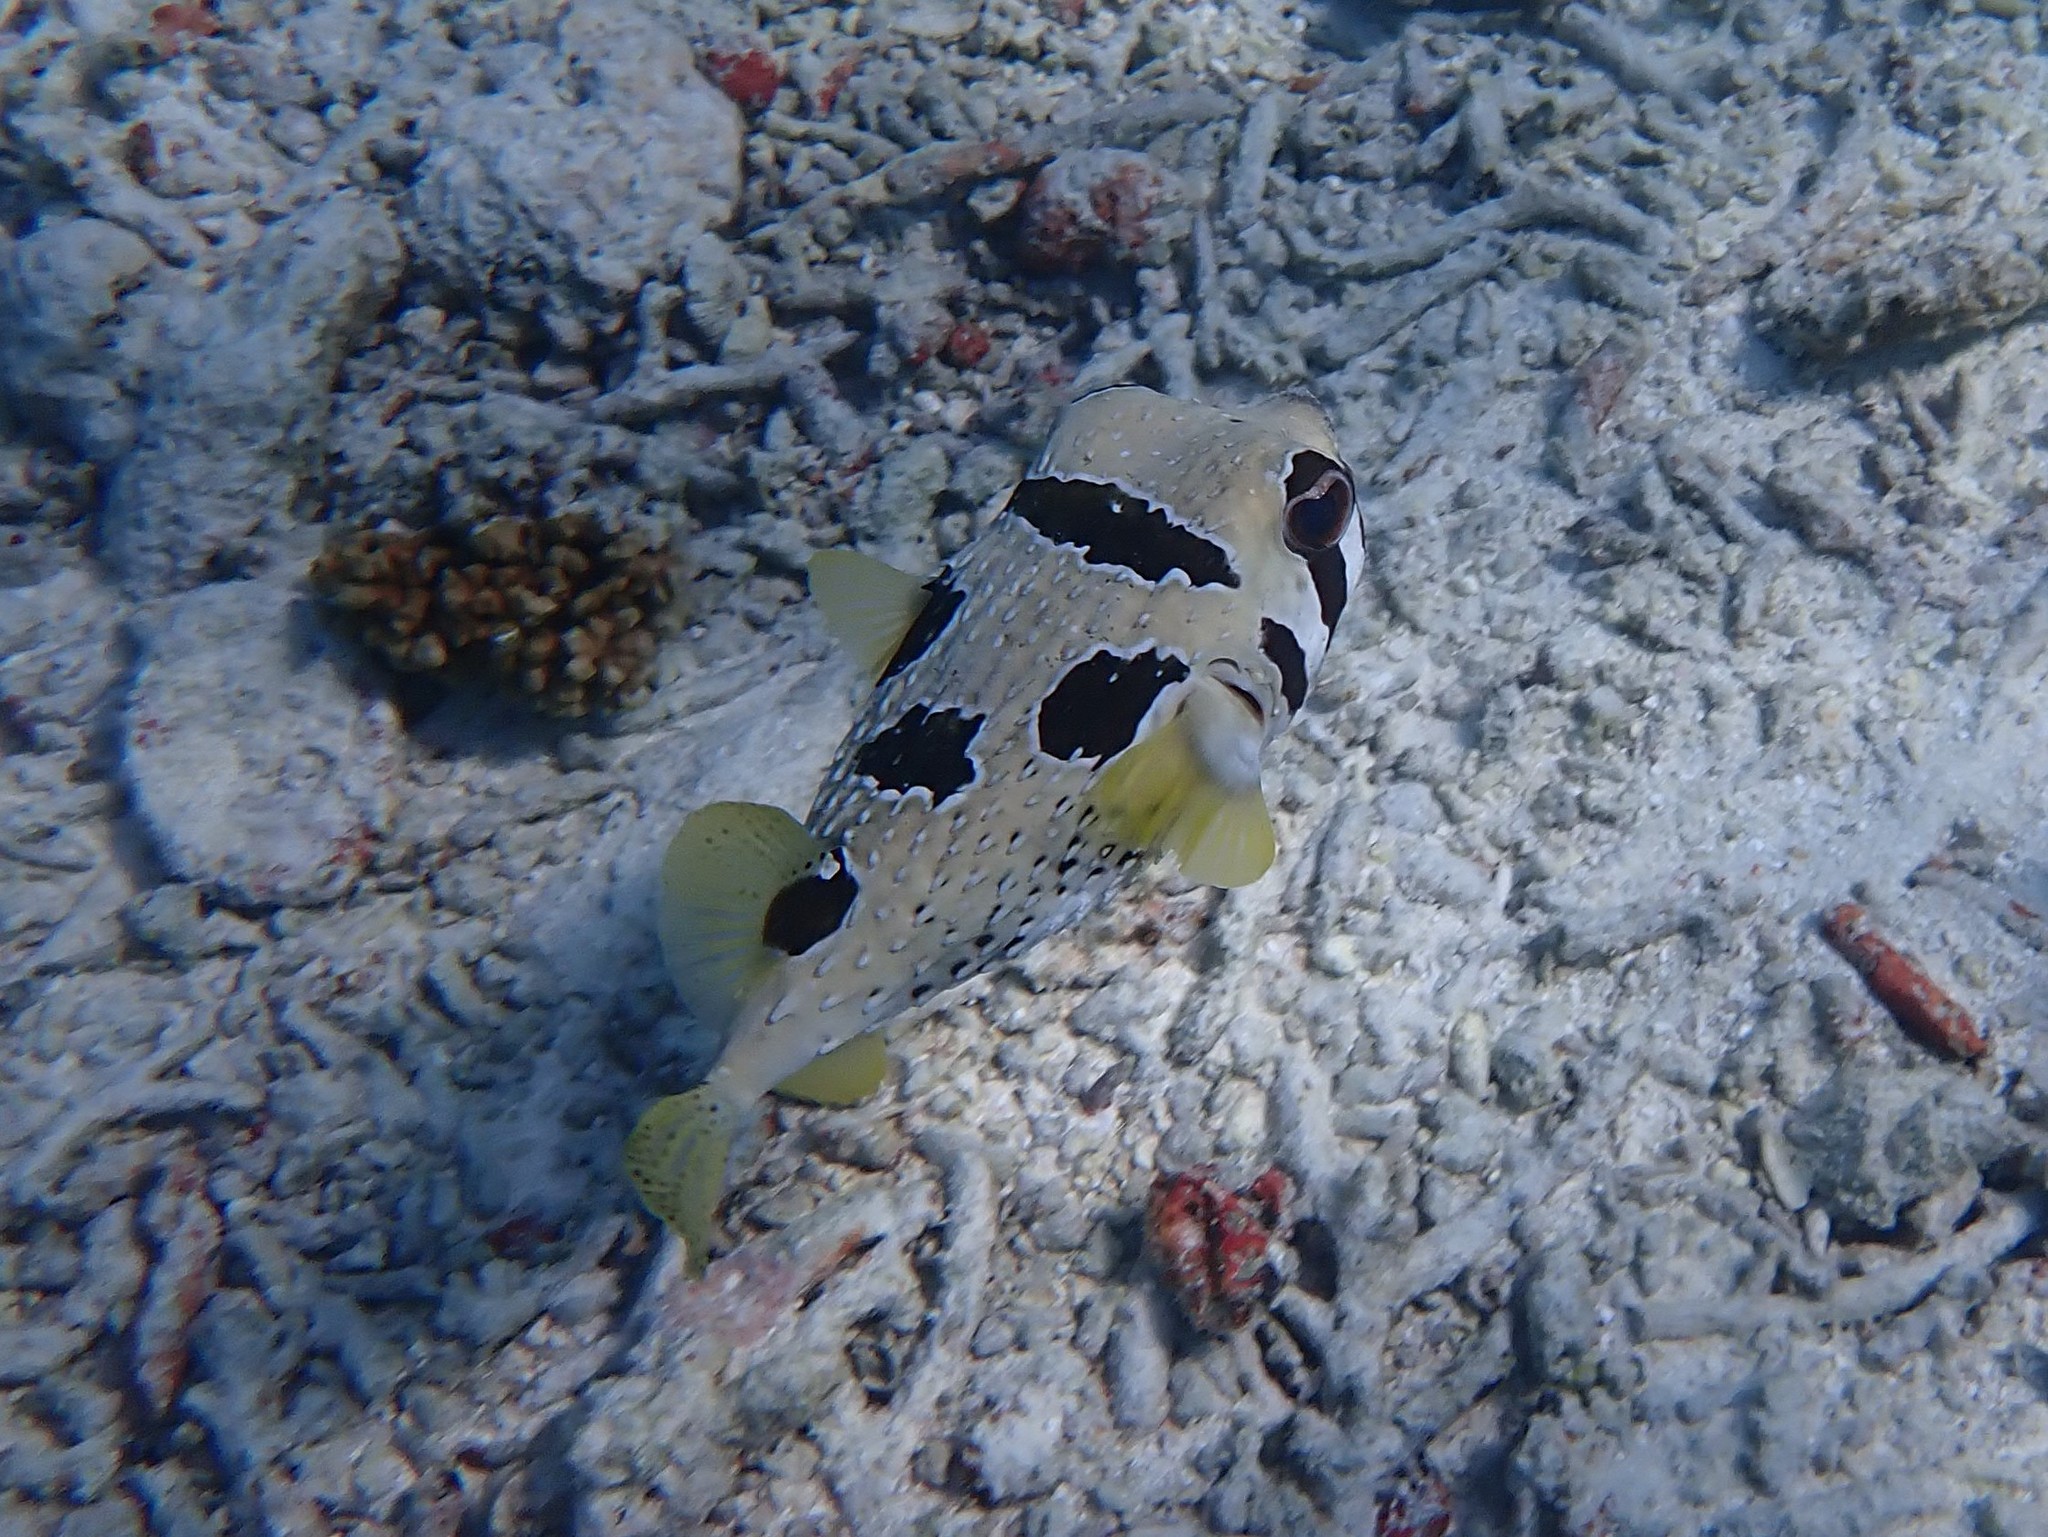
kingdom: Animalia
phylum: Chordata
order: Tetraodontiformes
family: Diodontidae
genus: Diodon
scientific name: Diodon liturosus
